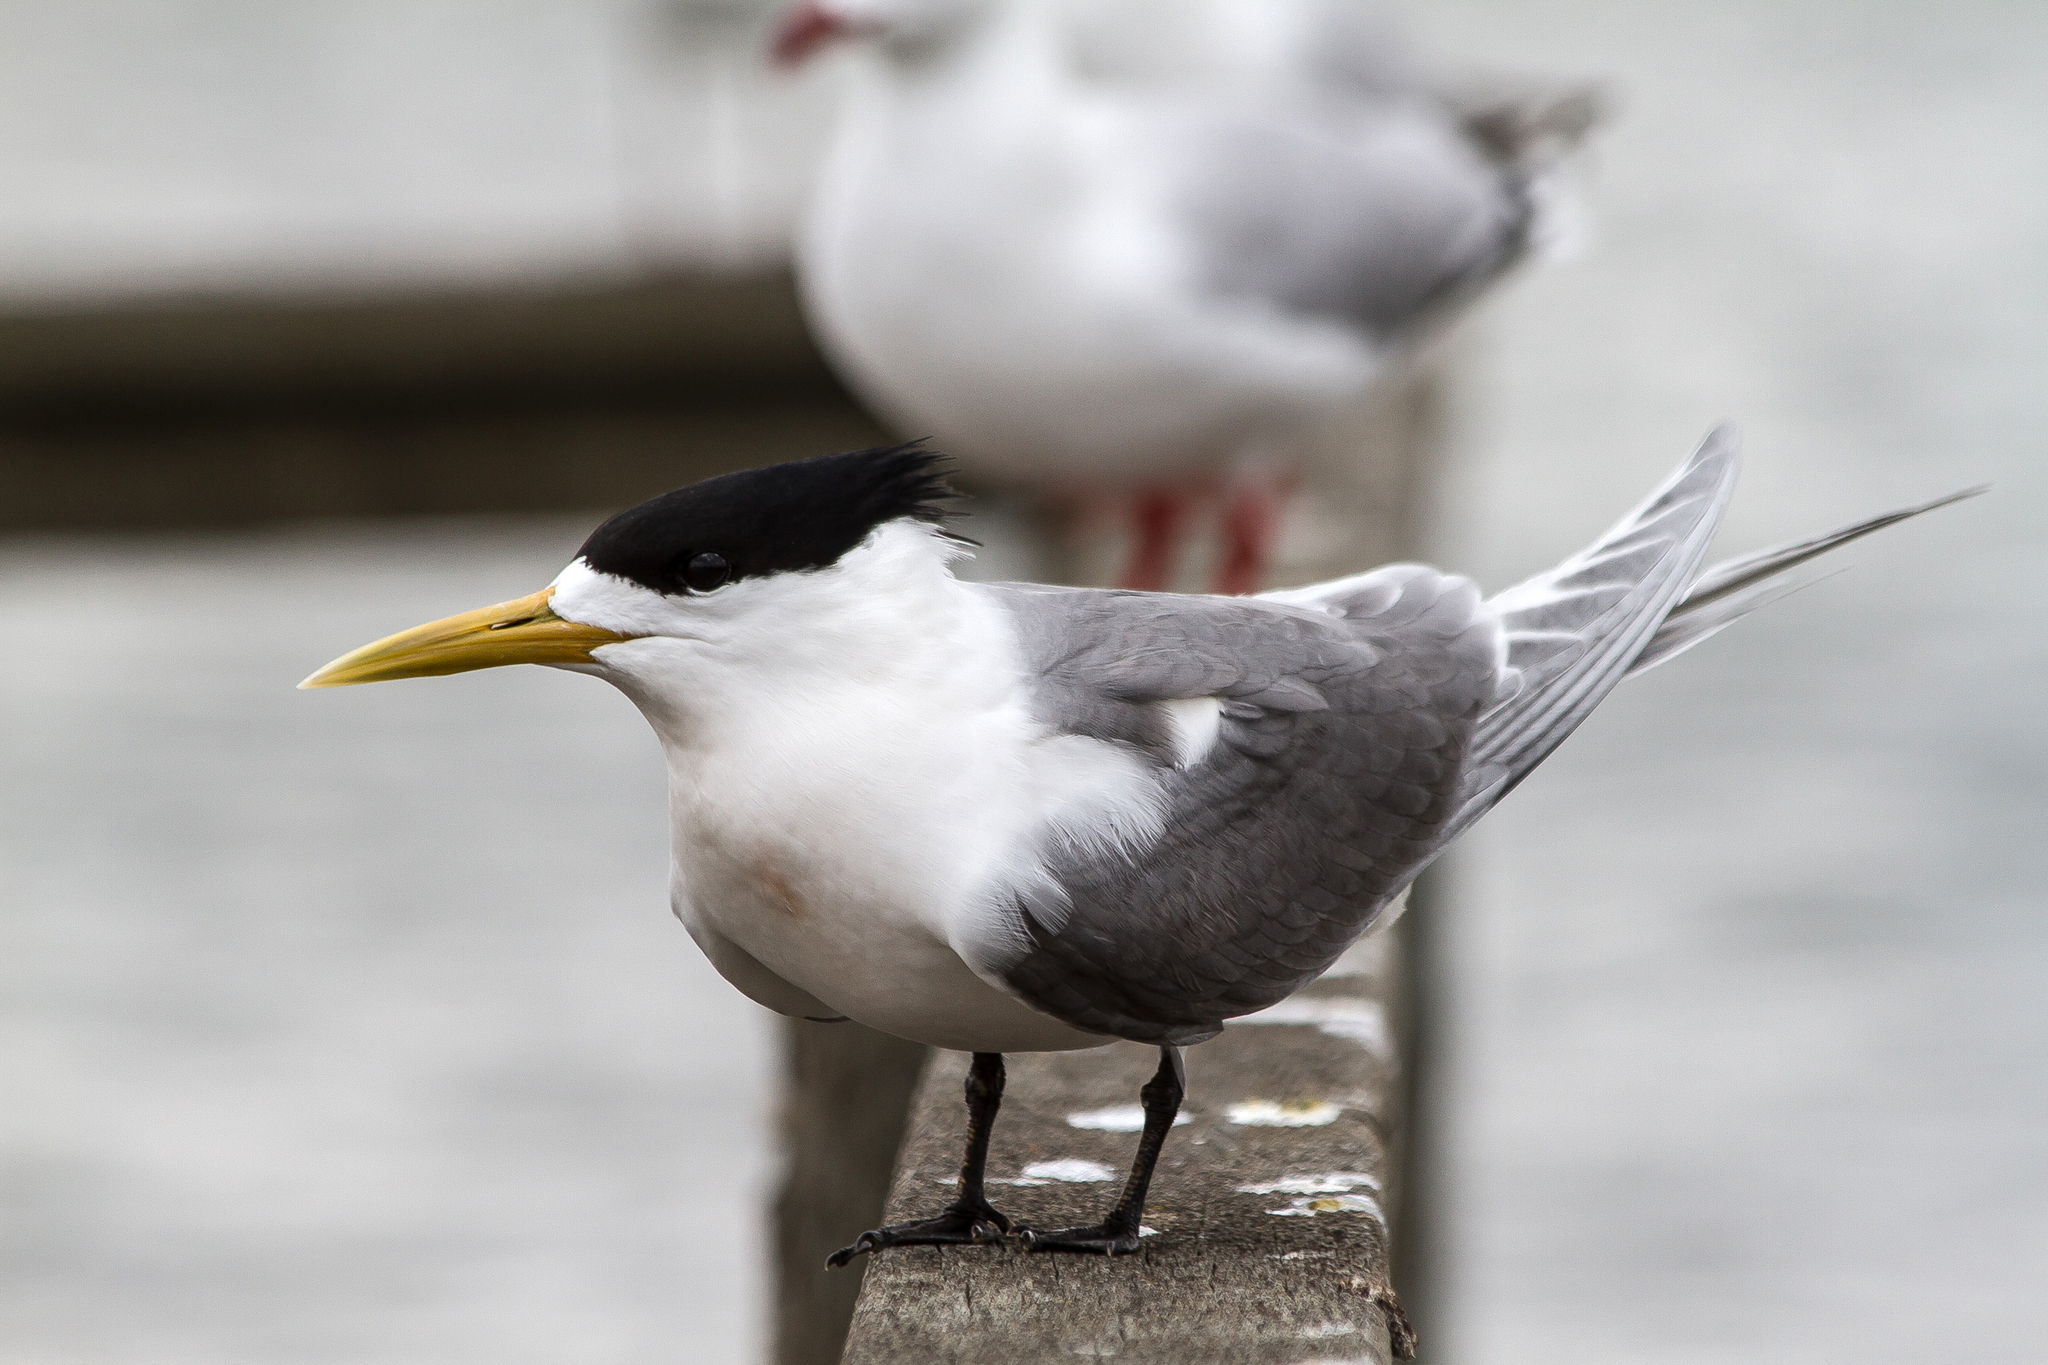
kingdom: Animalia
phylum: Chordata
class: Aves
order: Charadriiformes
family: Laridae
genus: Thalasseus
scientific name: Thalasseus bergii
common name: Greater crested tern
